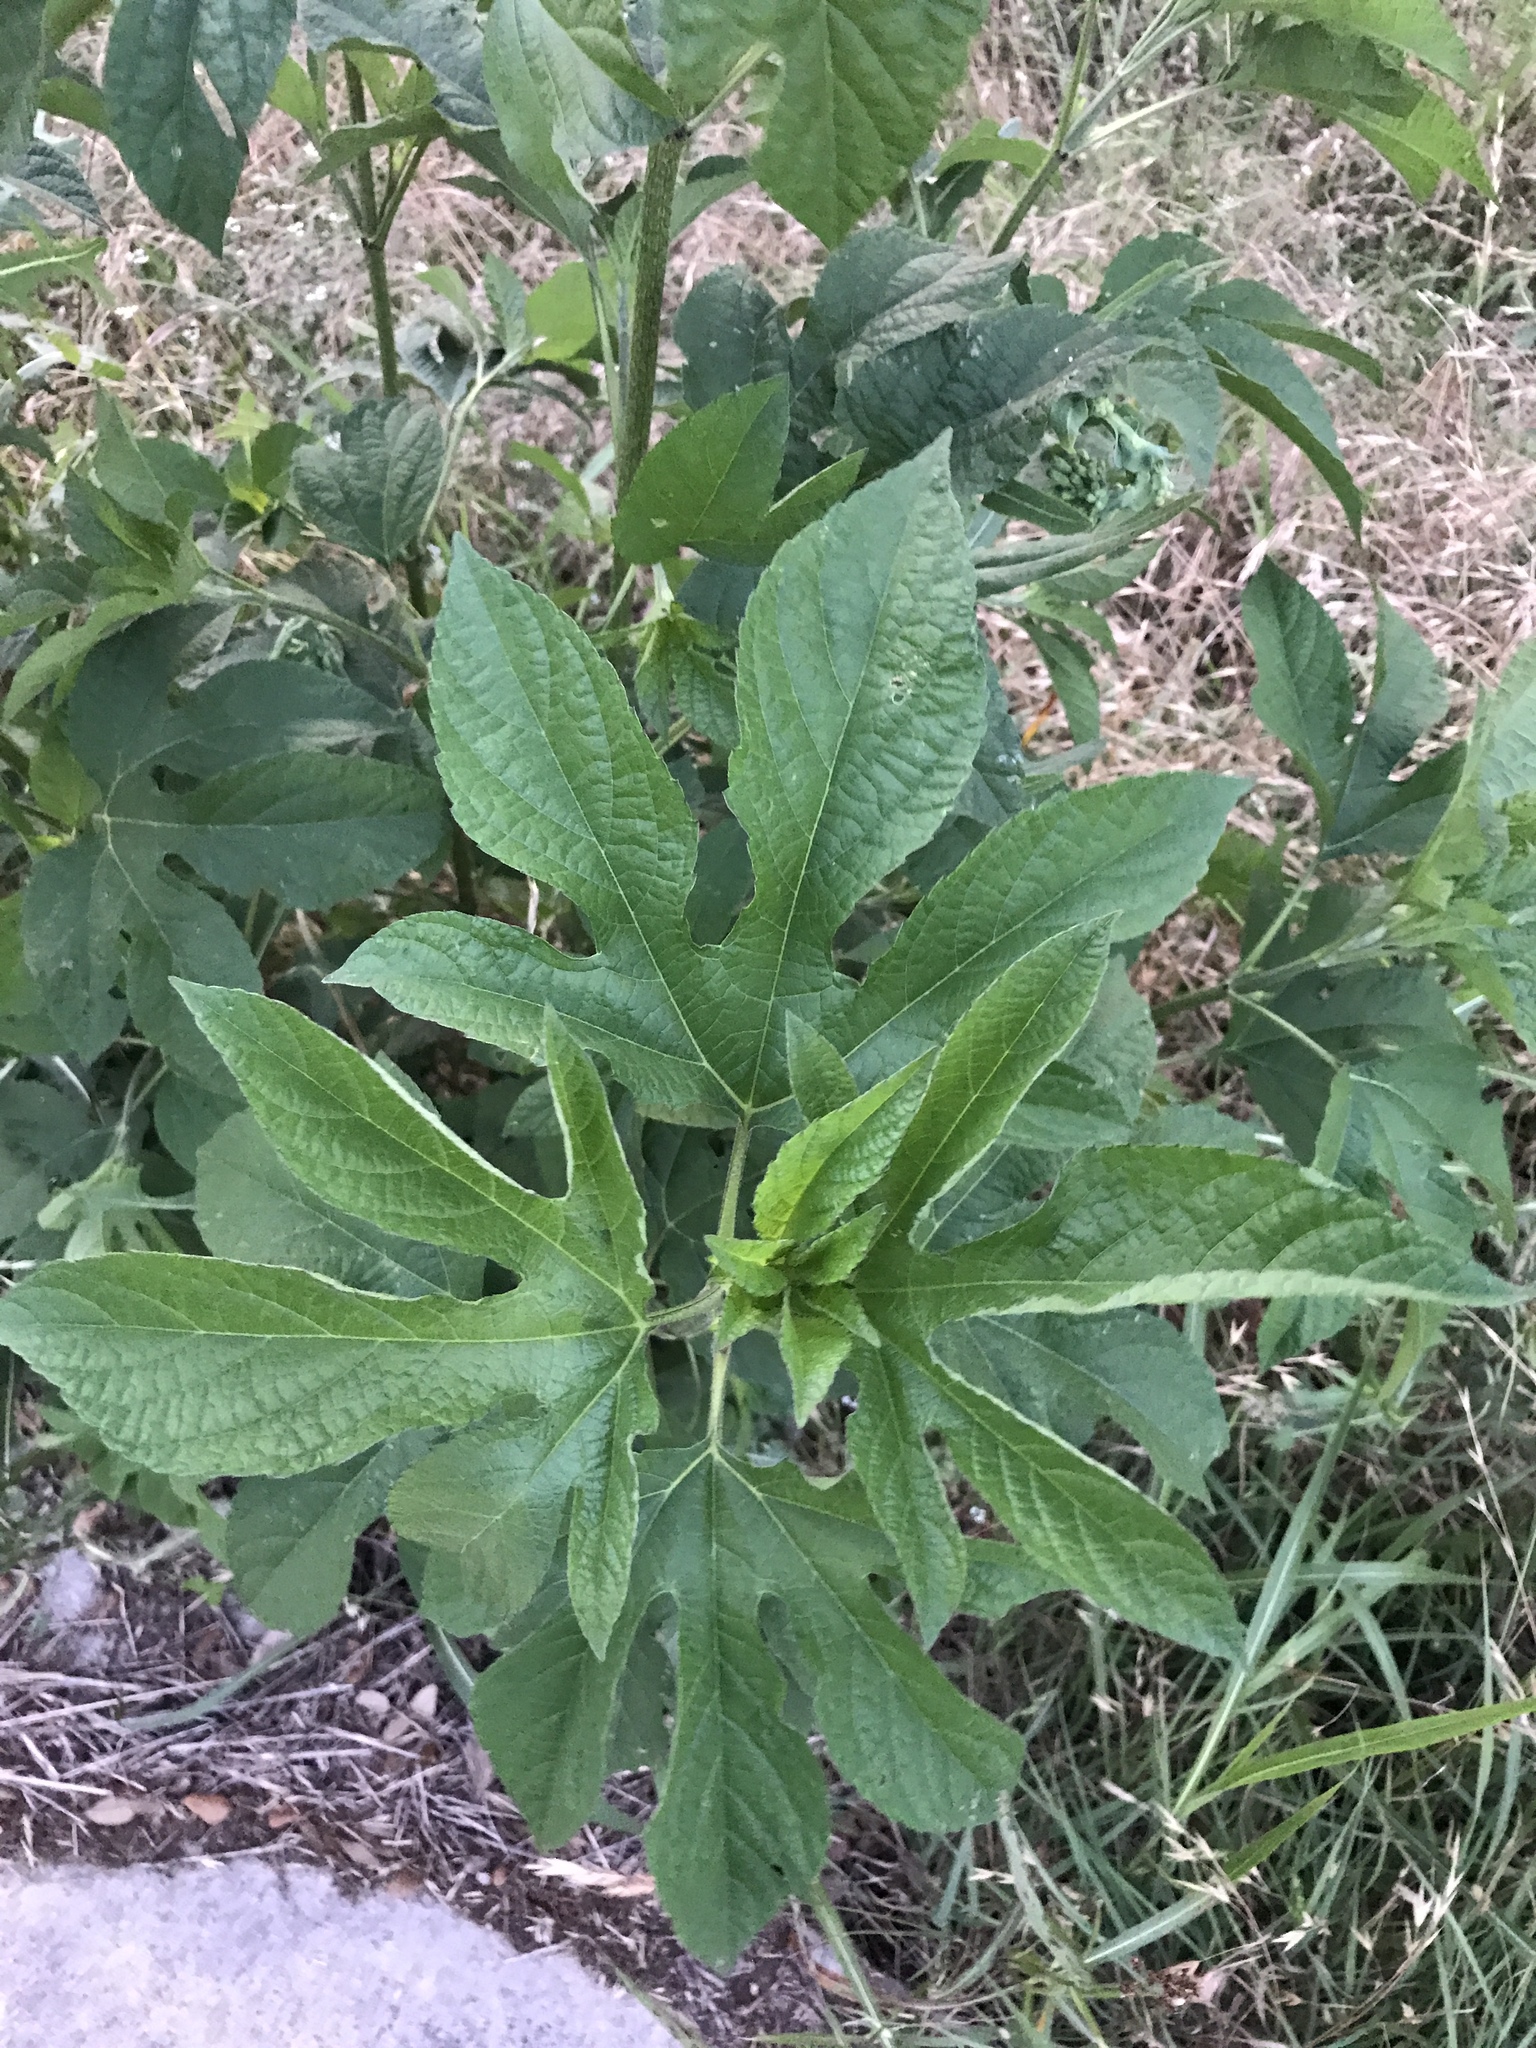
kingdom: Plantae
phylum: Tracheophyta
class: Magnoliopsida
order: Asterales
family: Asteraceae
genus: Ambrosia
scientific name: Ambrosia trifida
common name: Giant ragweed
